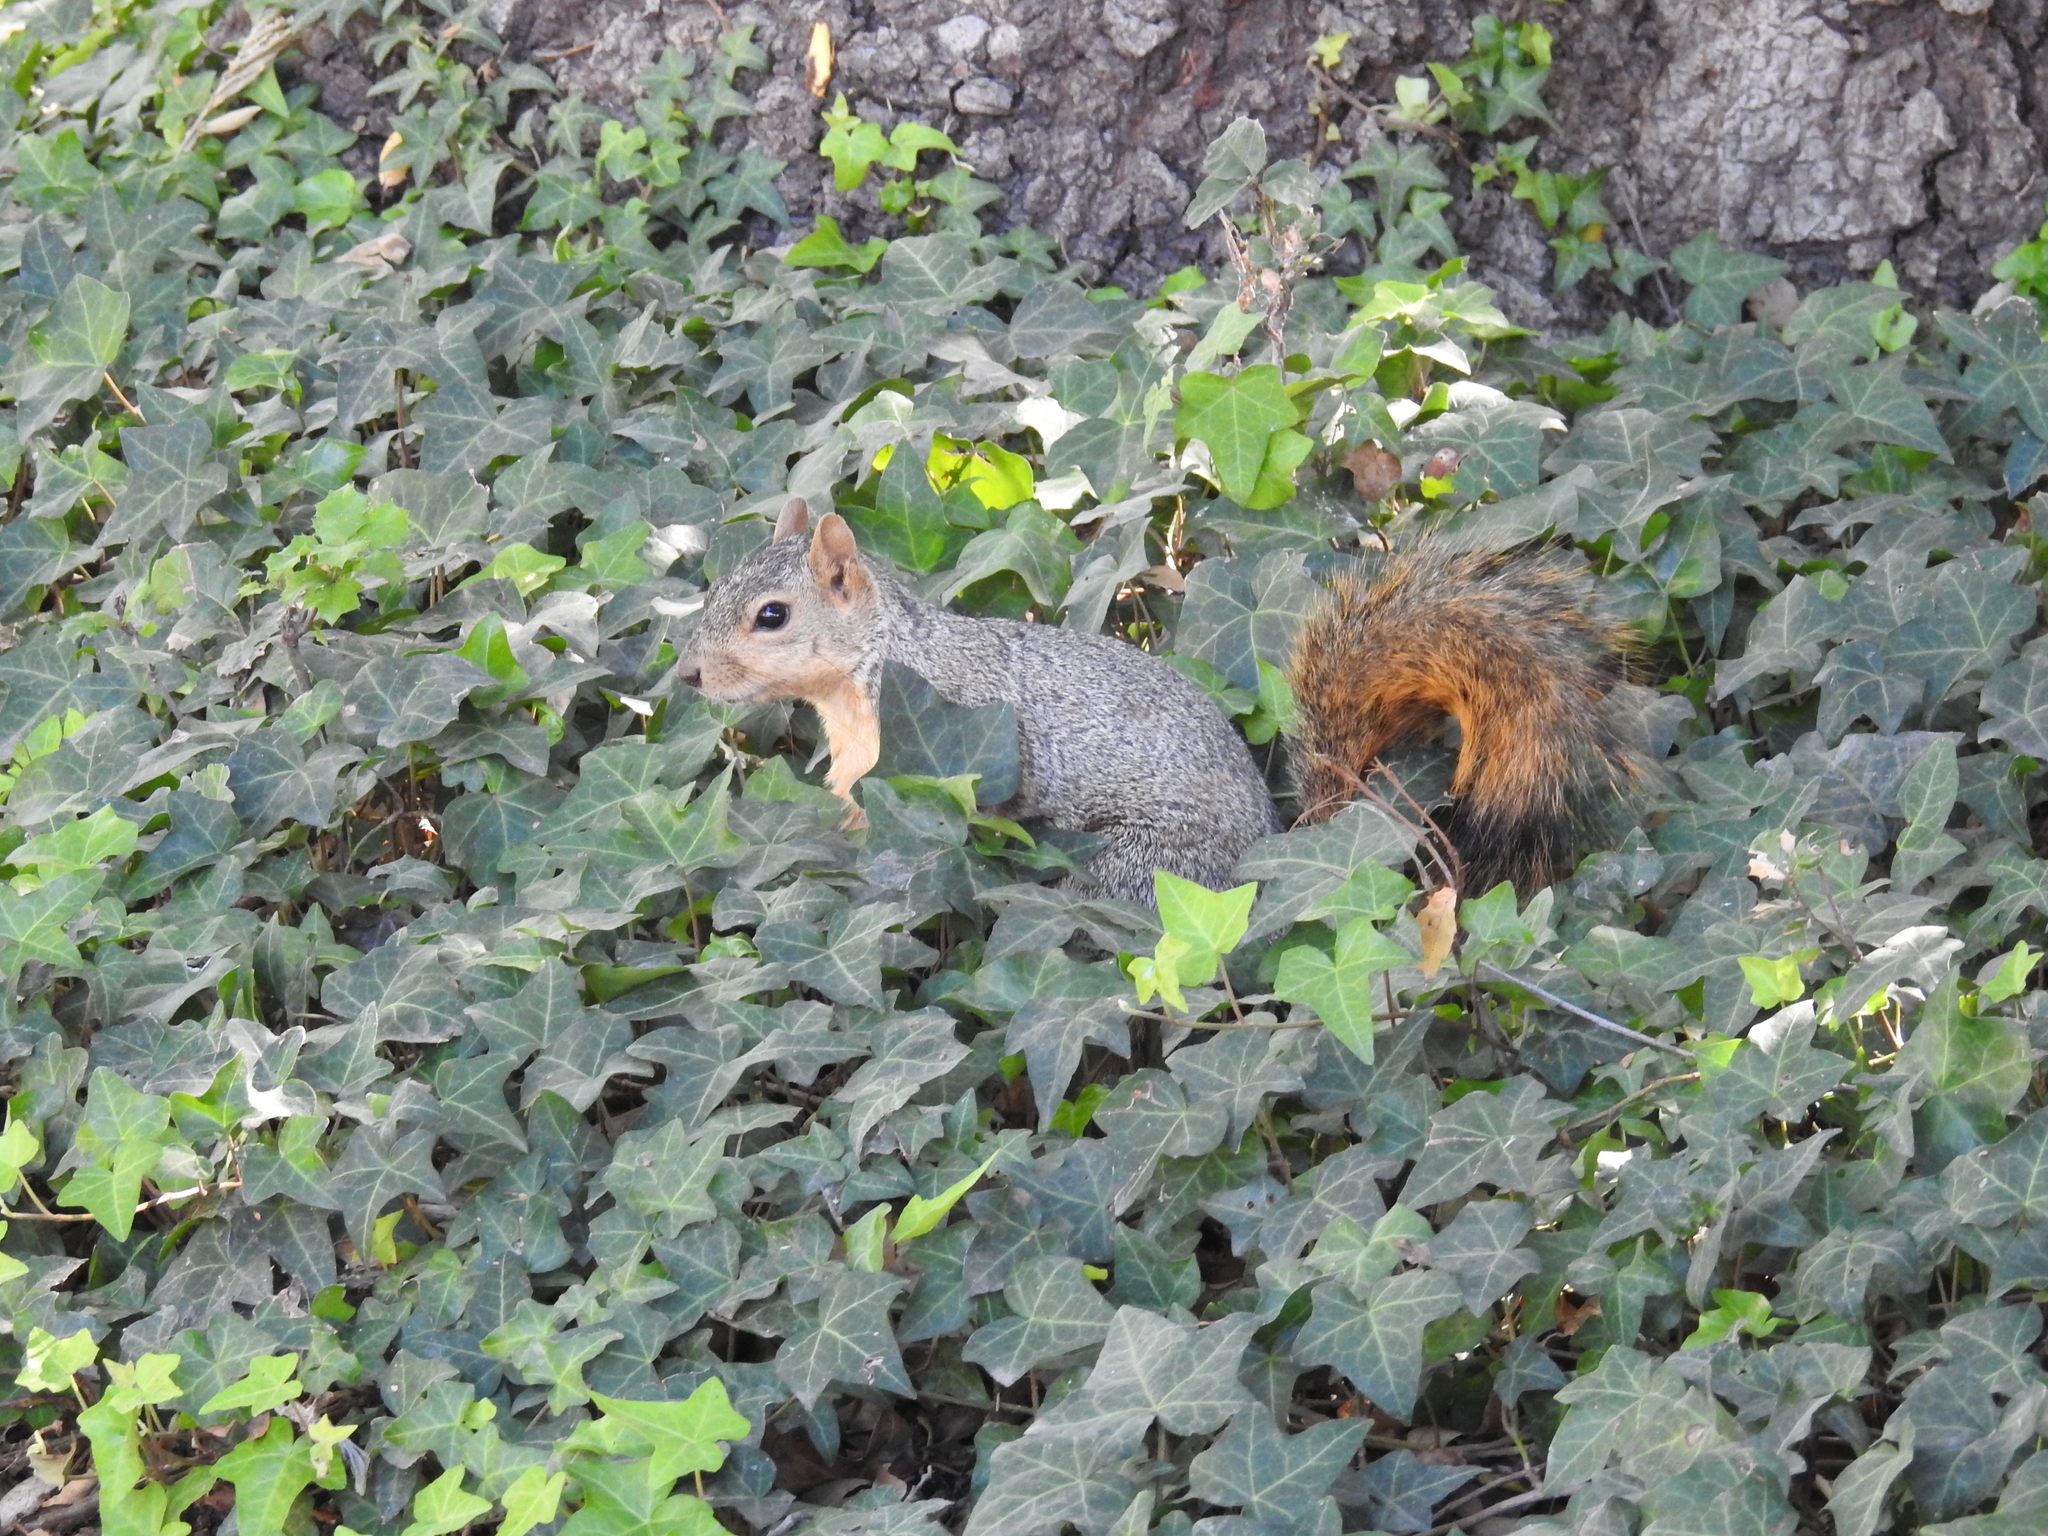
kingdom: Animalia
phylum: Chordata
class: Mammalia
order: Rodentia
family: Sciuridae
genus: Sciurus
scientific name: Sciurus niger
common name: Fox squirrel
